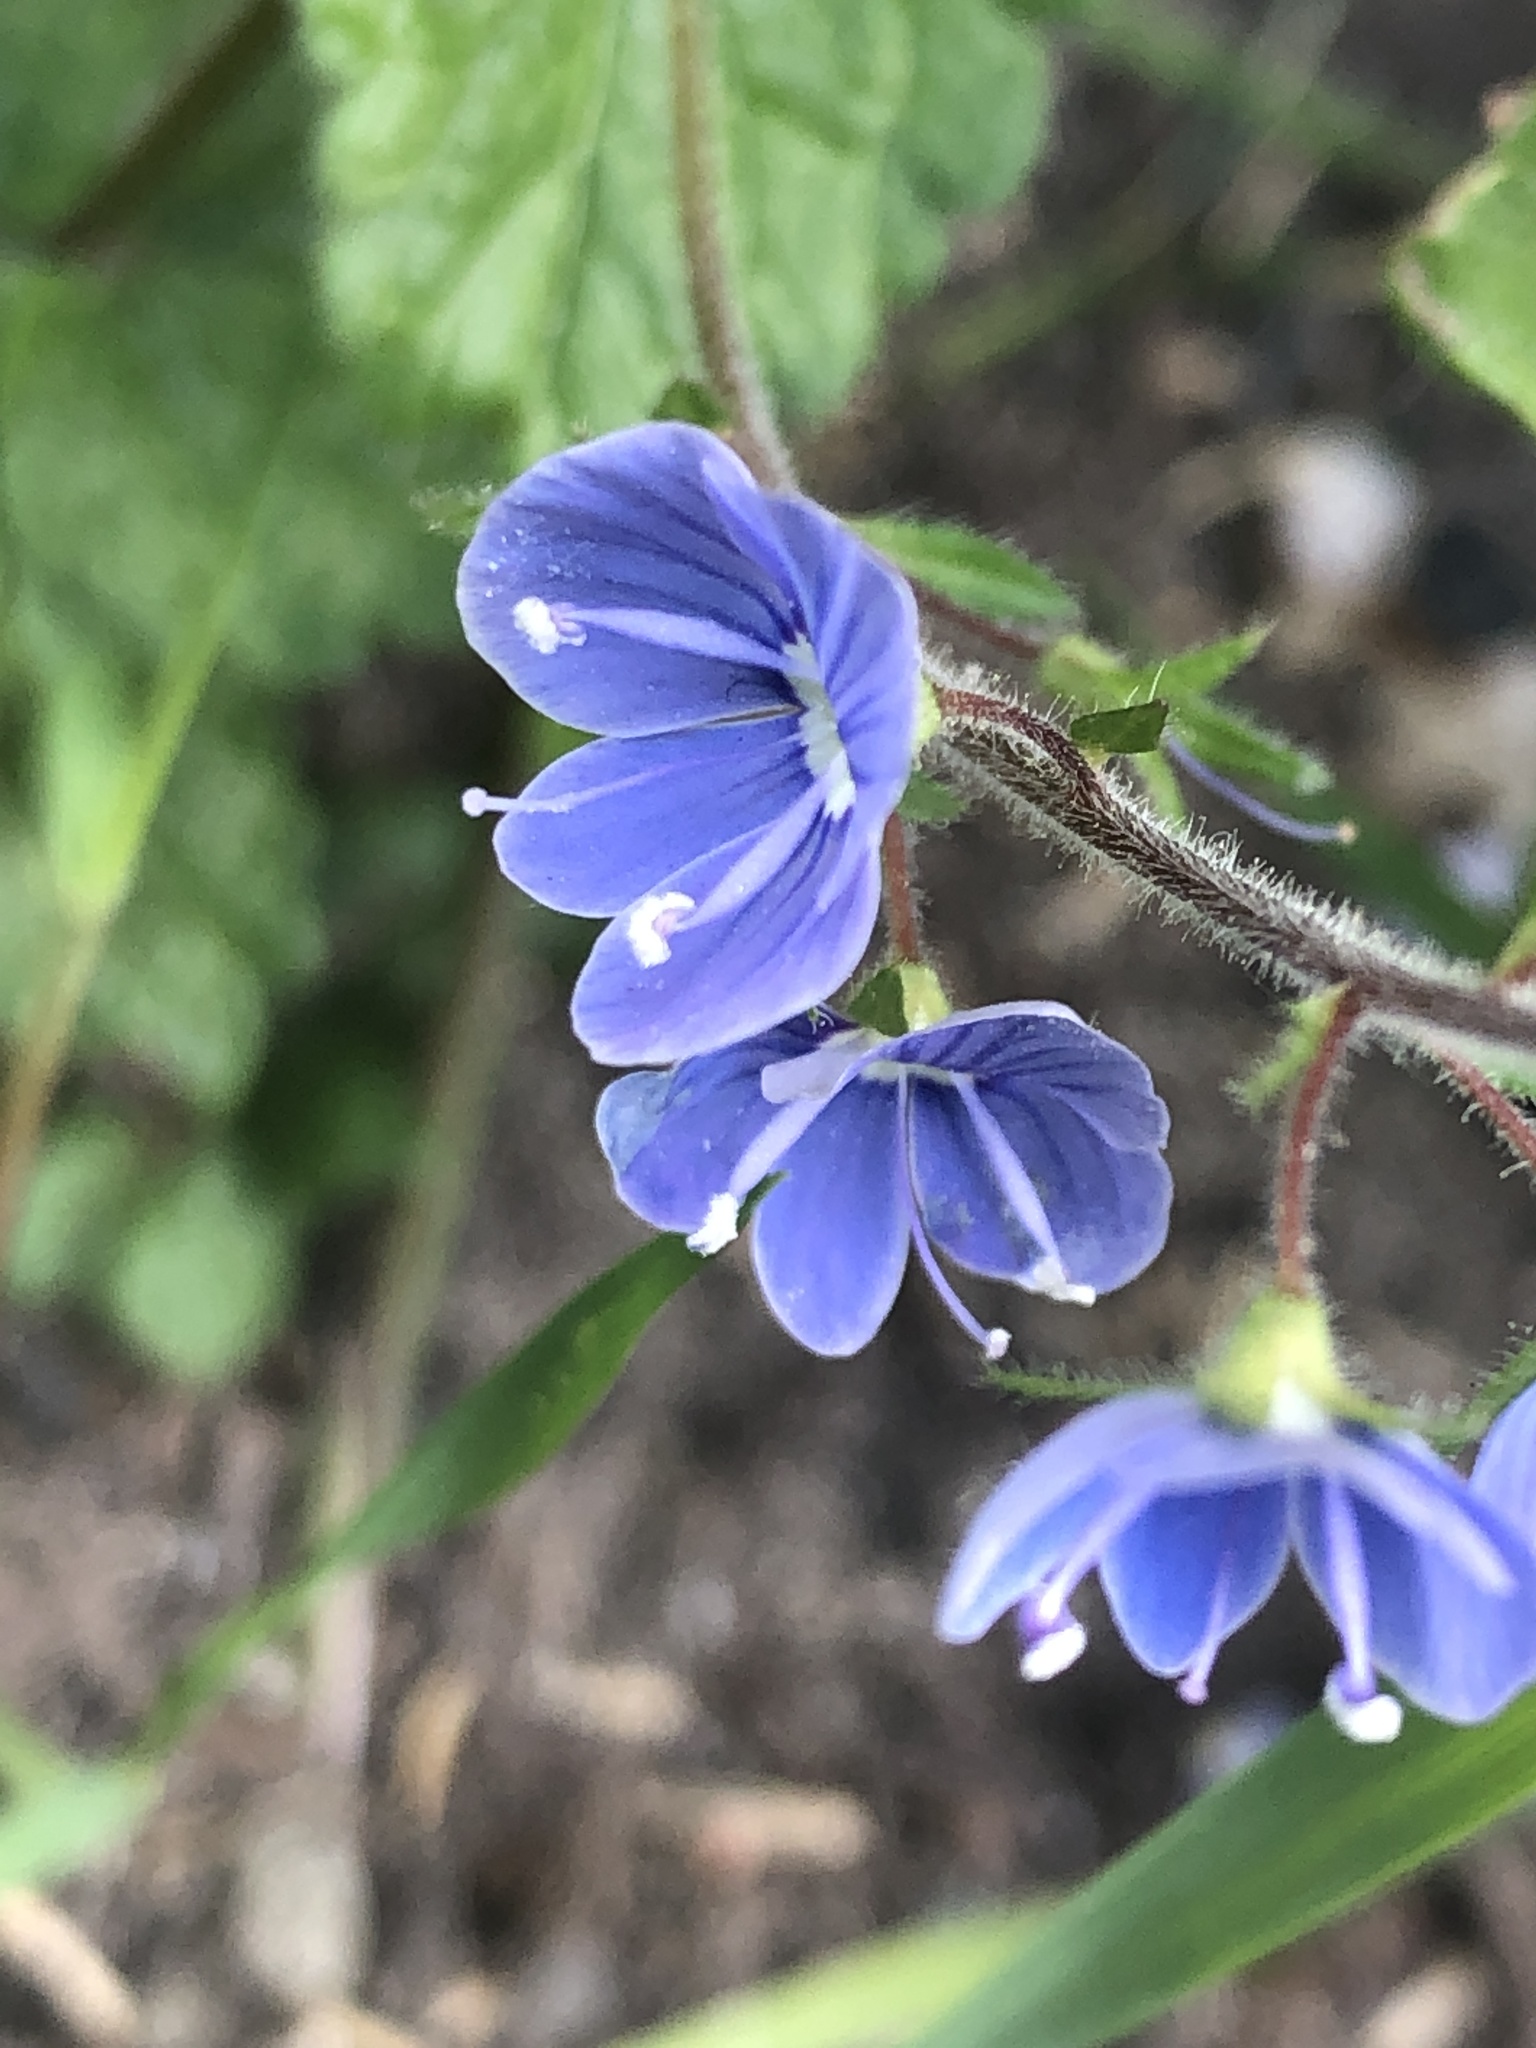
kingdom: Plantae
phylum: Tracheophyta
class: Magnoliopsida
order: Lamiales
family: Plantaginaceae
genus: Veronica
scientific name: Veronica chamaedrys
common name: Germander speedwell
